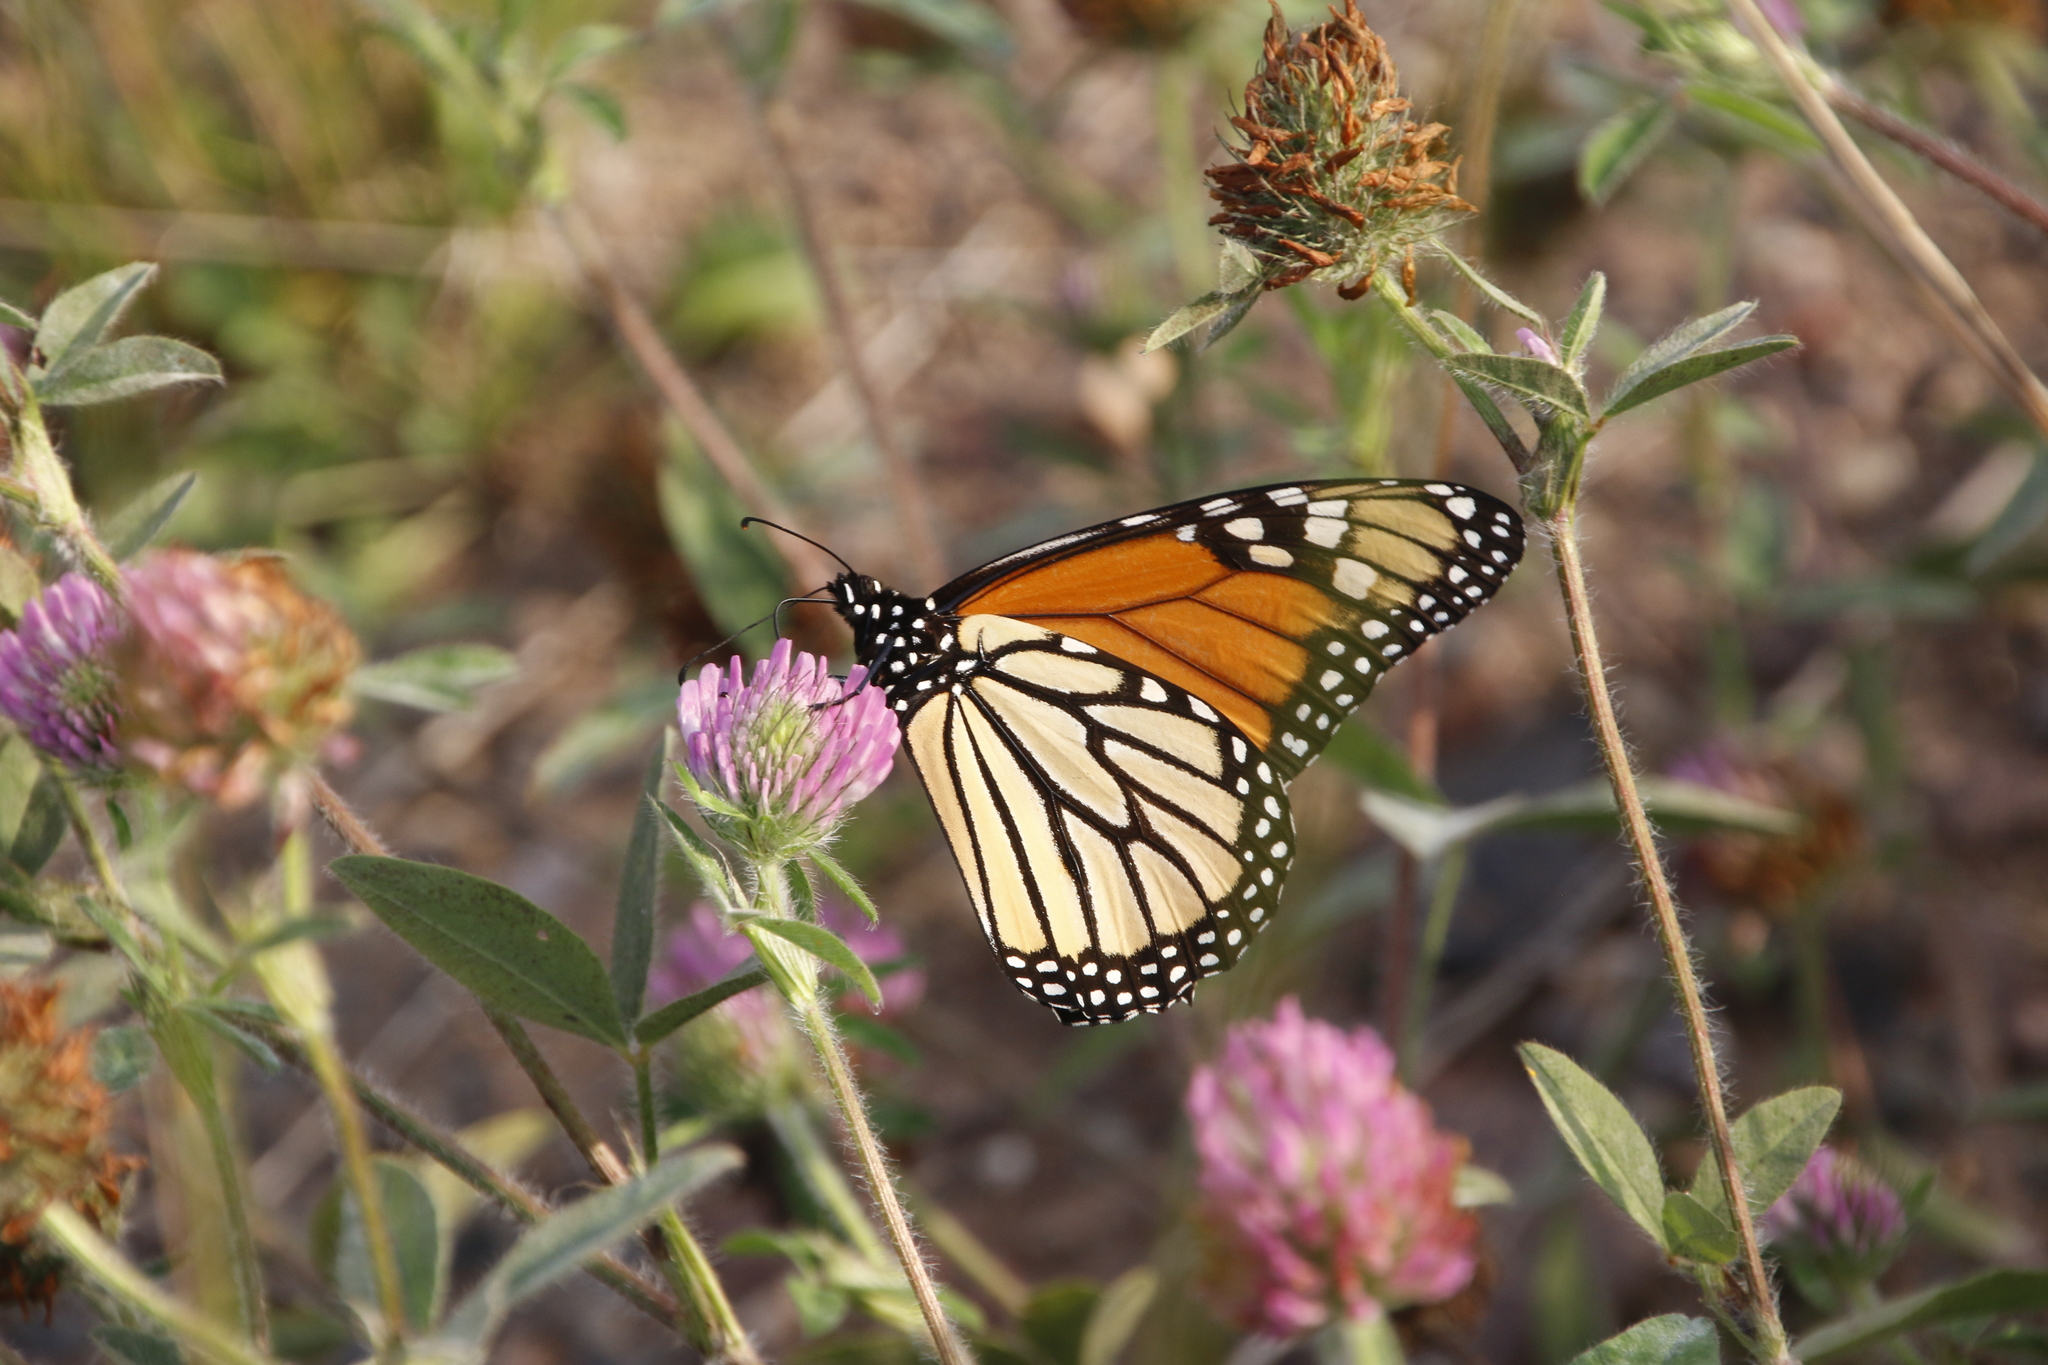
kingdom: Animalia
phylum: Arthropoda
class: Insecta
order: Lepidoptera
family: Nymphalidae
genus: Danaus
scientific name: Danaus plexippus
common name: Monarch
